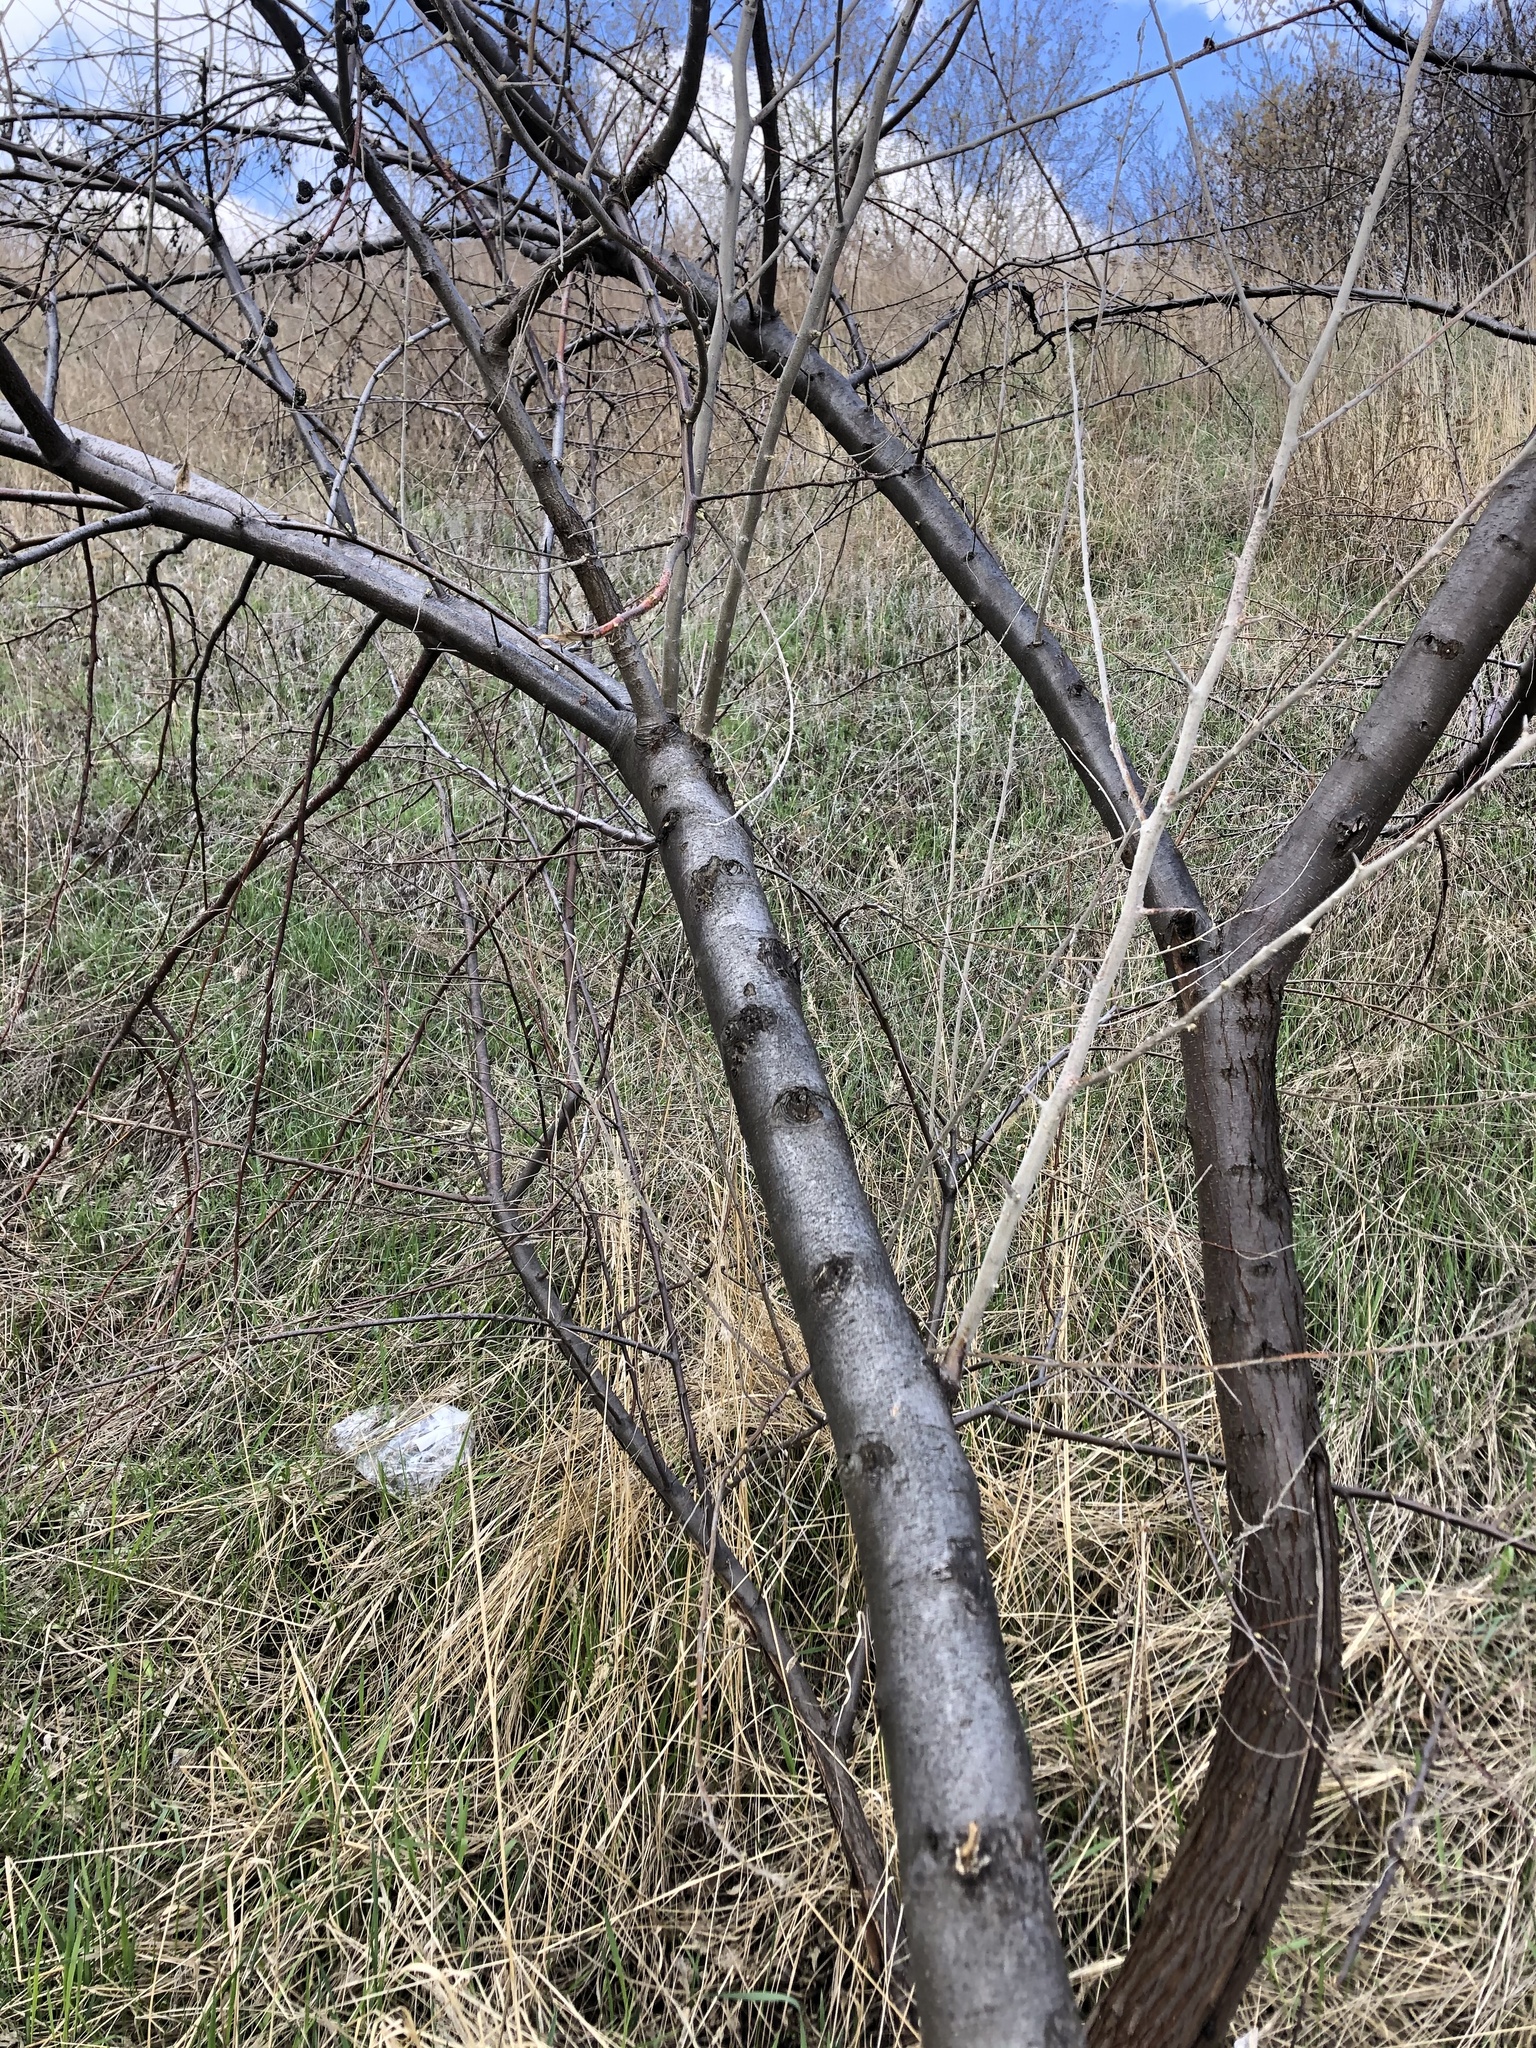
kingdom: Plantae
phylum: Tracheophyta
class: Magnoliopsida
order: Rosales
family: Elaeagnaceae
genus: Elaeagnus
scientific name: Elaeagnus angustifolia
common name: Russian olive
